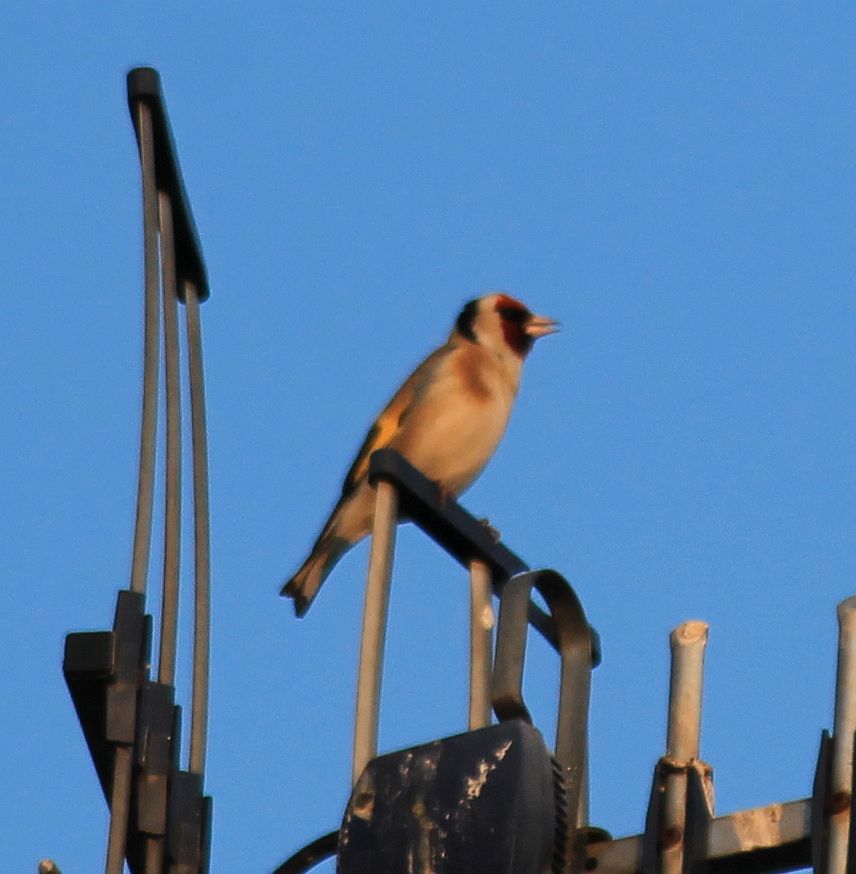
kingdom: Animalia
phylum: Chordata
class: Aves
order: Passeriformes
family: Fringillidae
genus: Carduelis
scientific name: Carduelis carduelis
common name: European goldfinch
